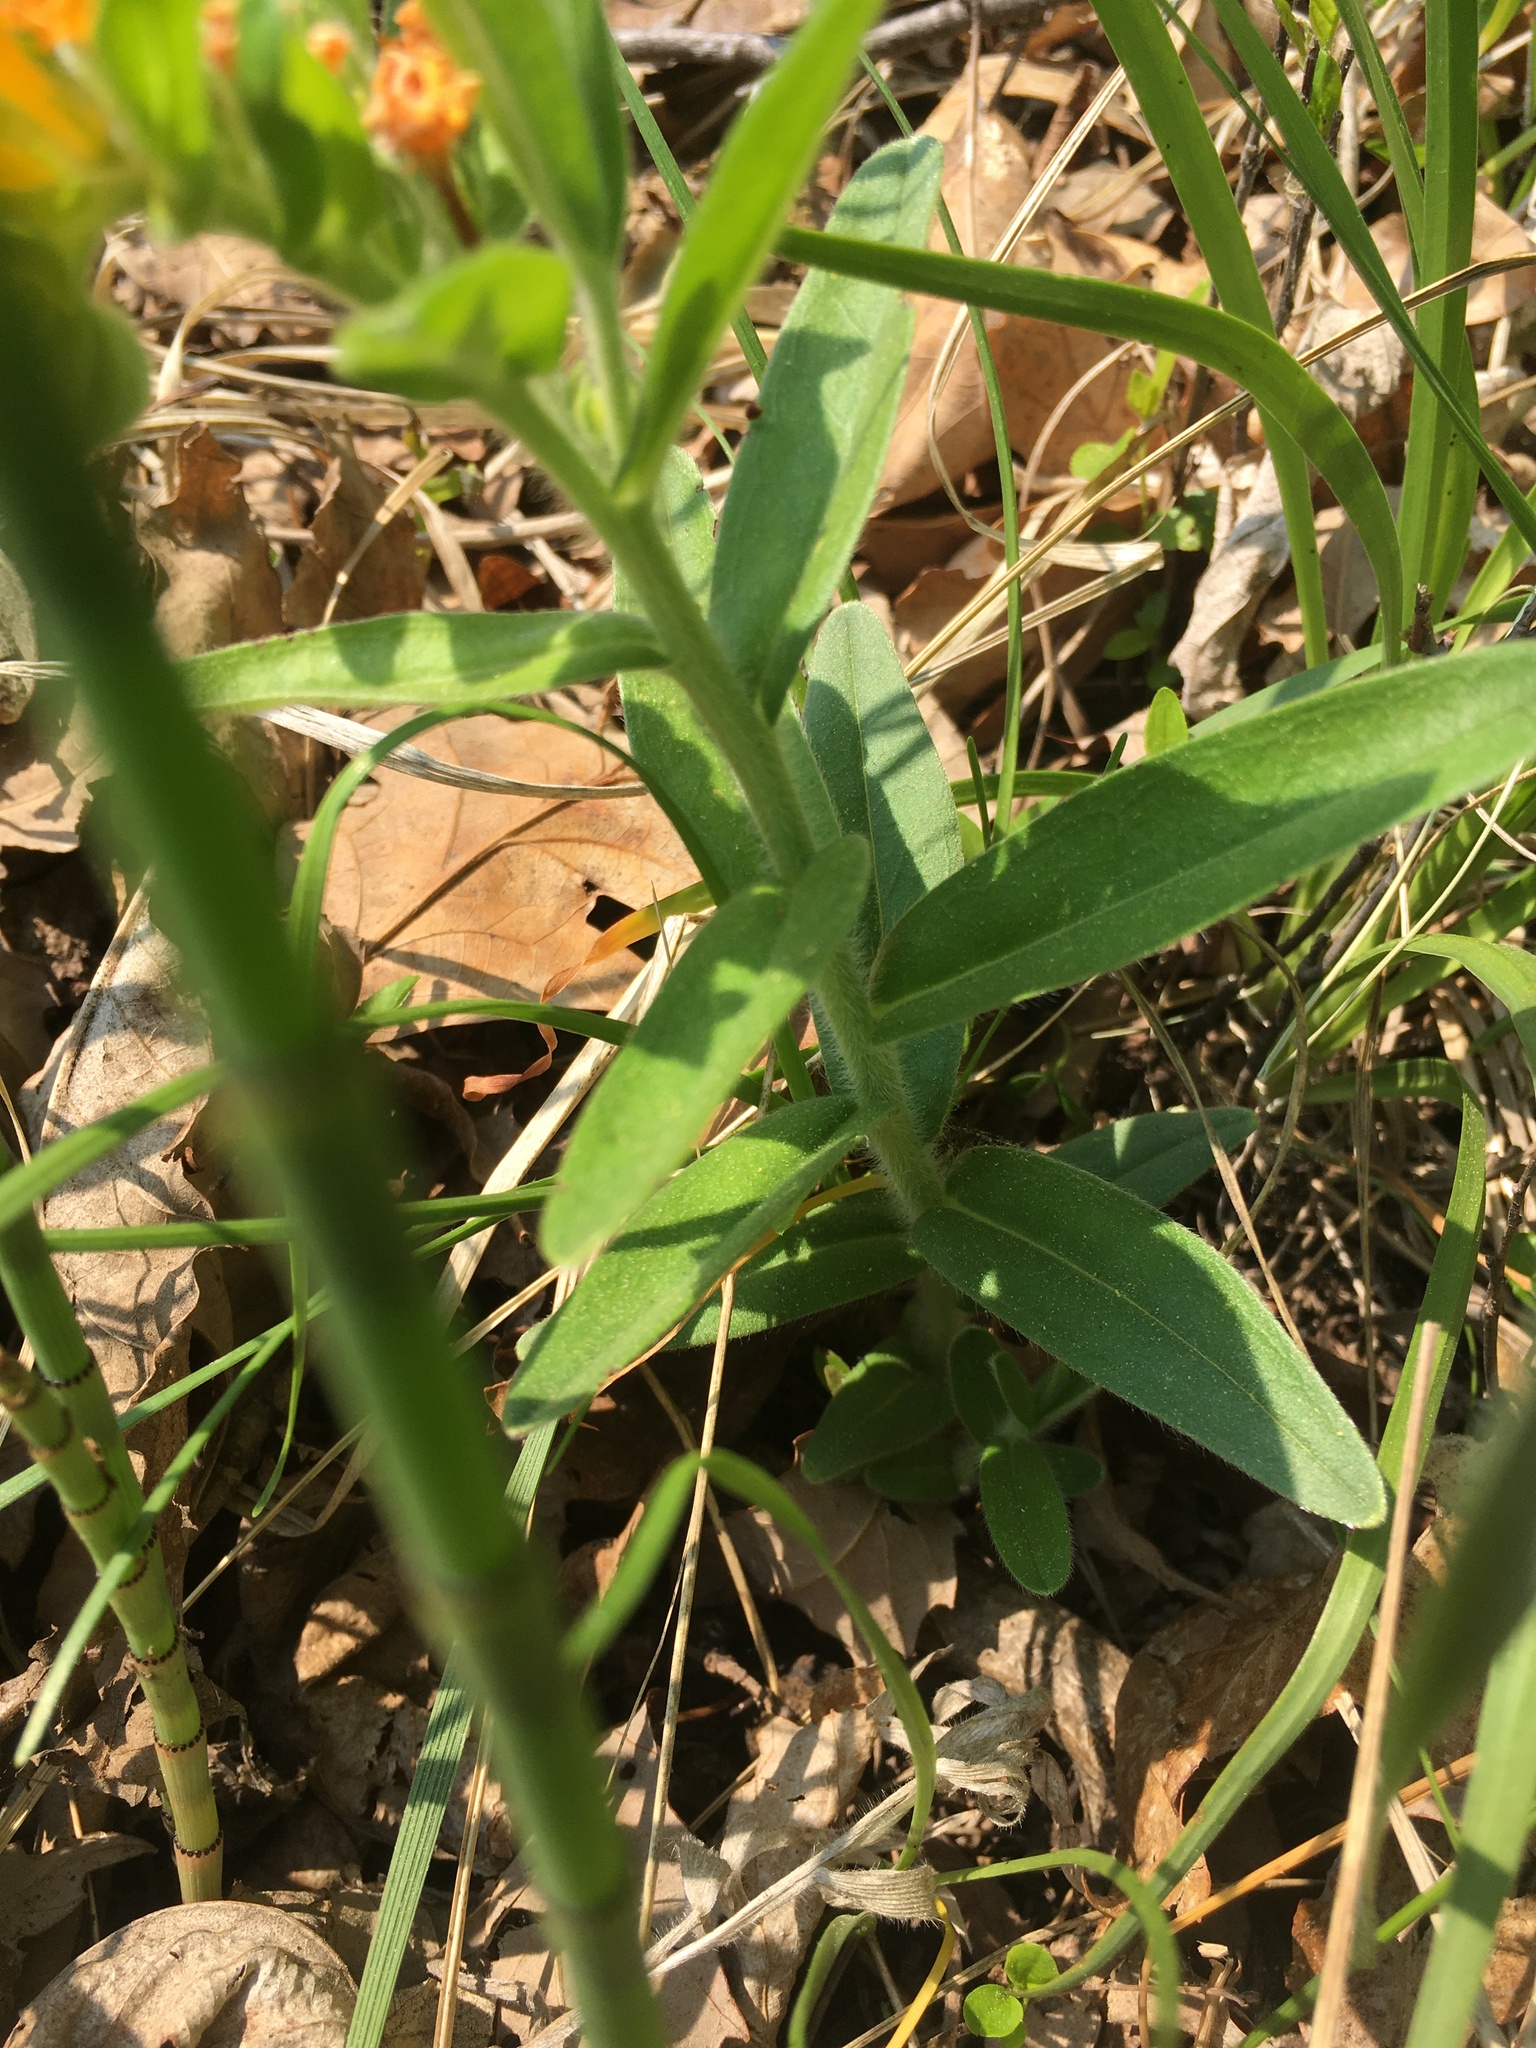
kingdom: Plantae
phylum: Tracheophyta
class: Magnoliopsida
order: Boraginales
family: Boraginaceae
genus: Lithospermum
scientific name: Lithospermum canescens
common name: Hoary puccoon
